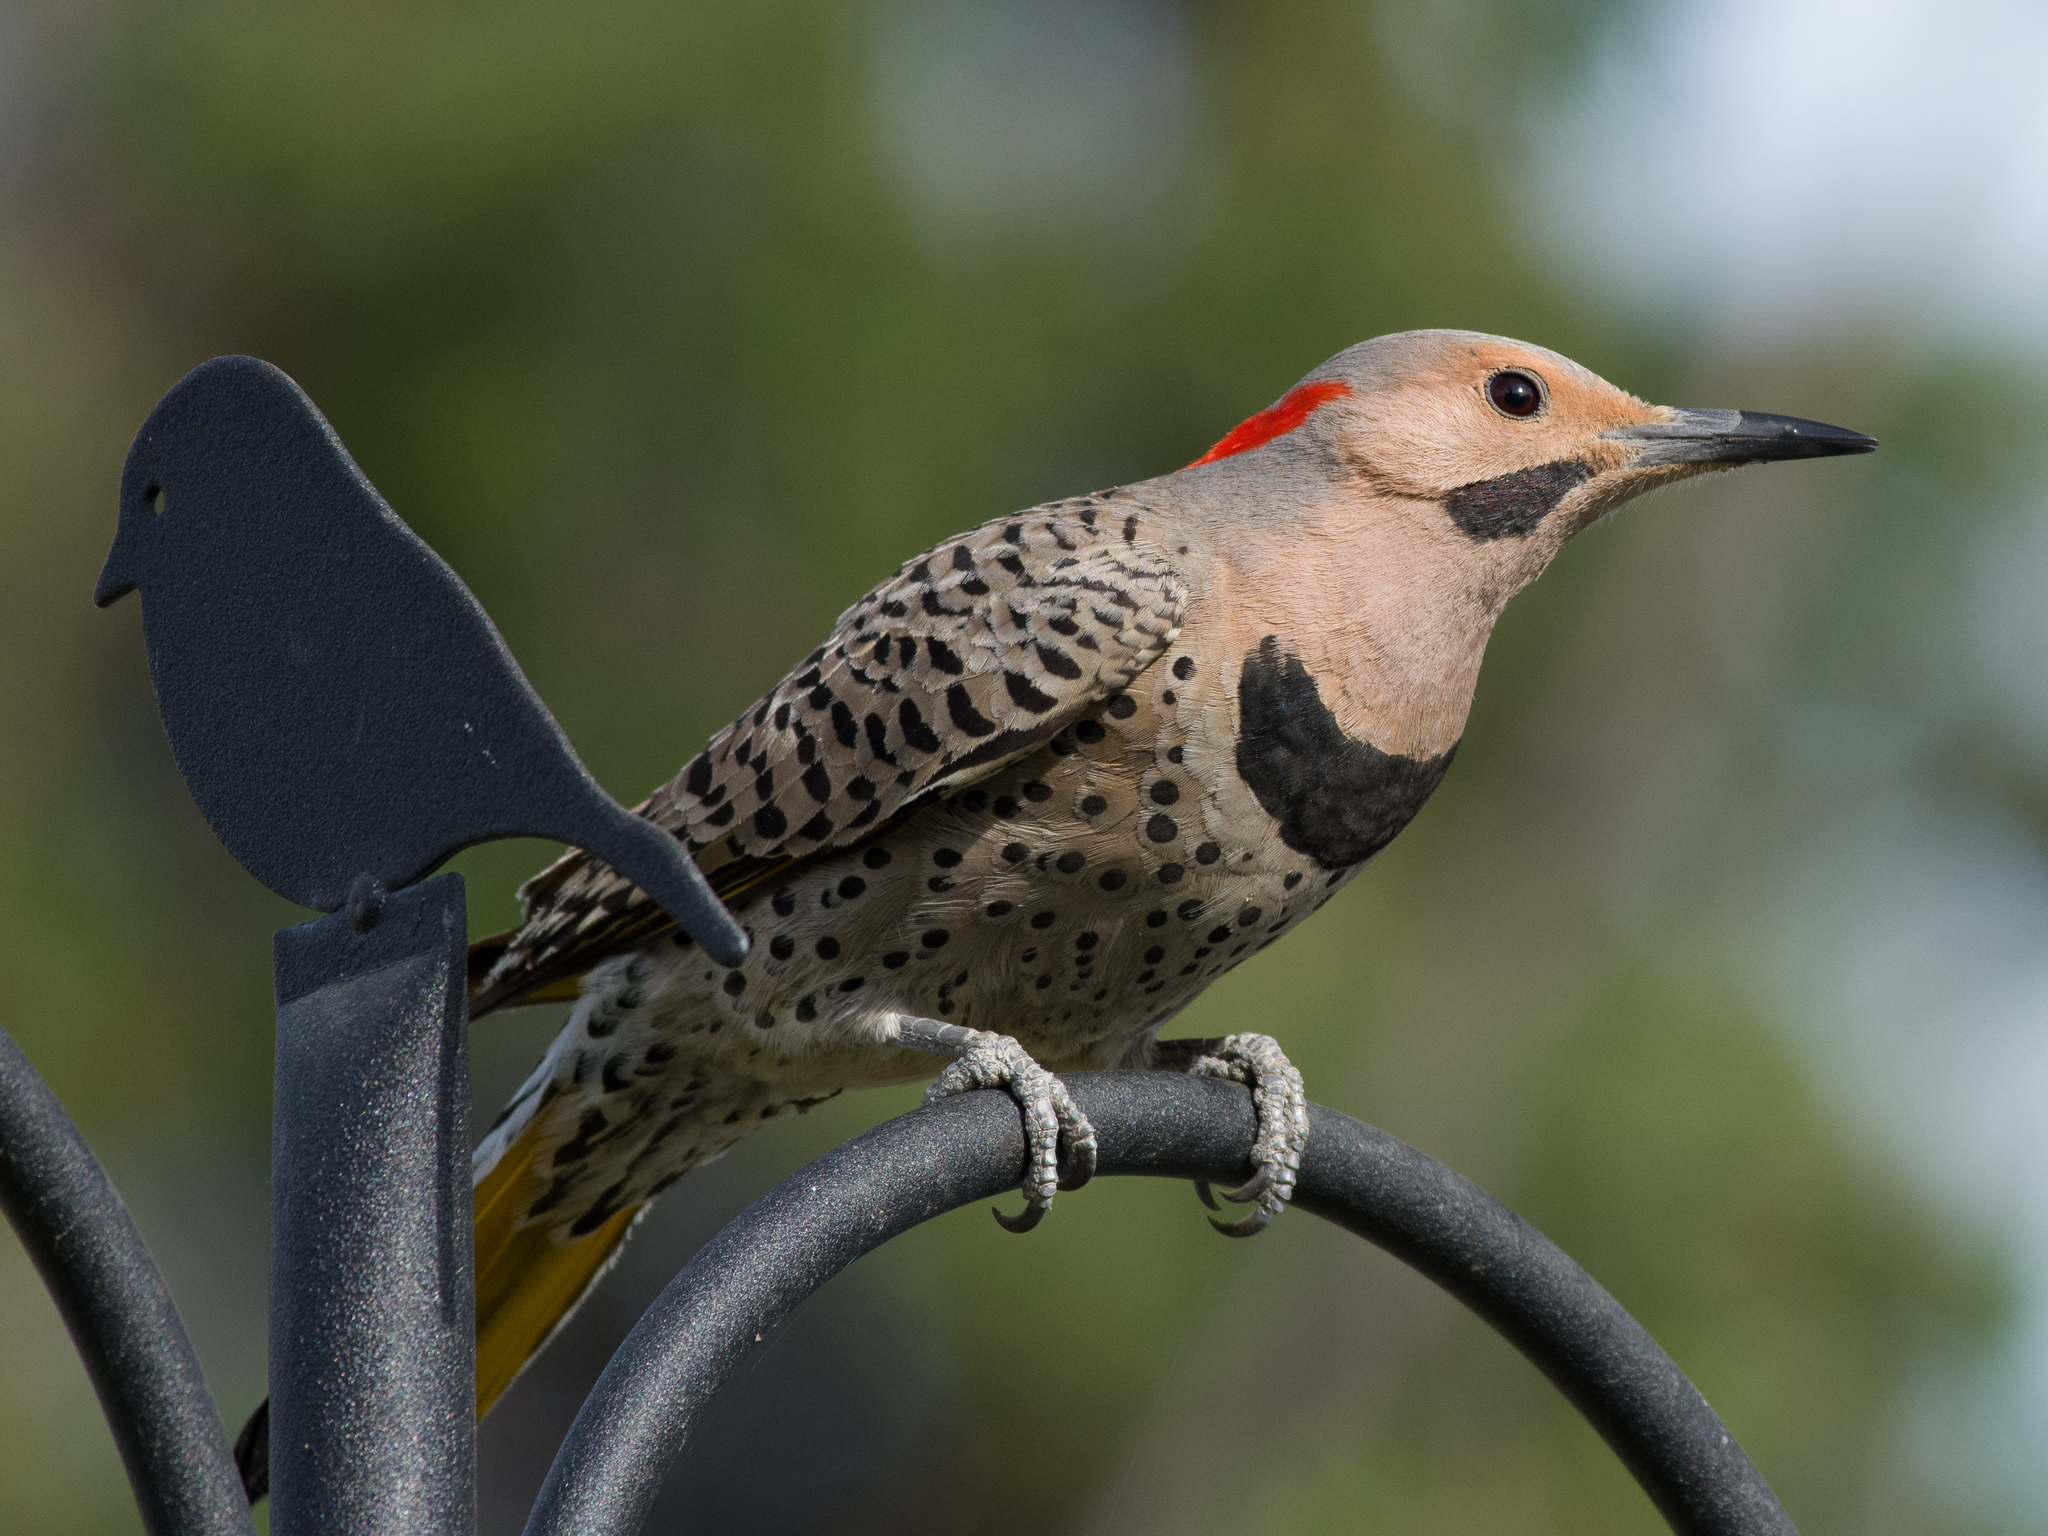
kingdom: Animalia
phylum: Chordata
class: Aves
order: Piciformes
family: Picidae
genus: Colaptes
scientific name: Colaptes auratus
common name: Northern flicker
